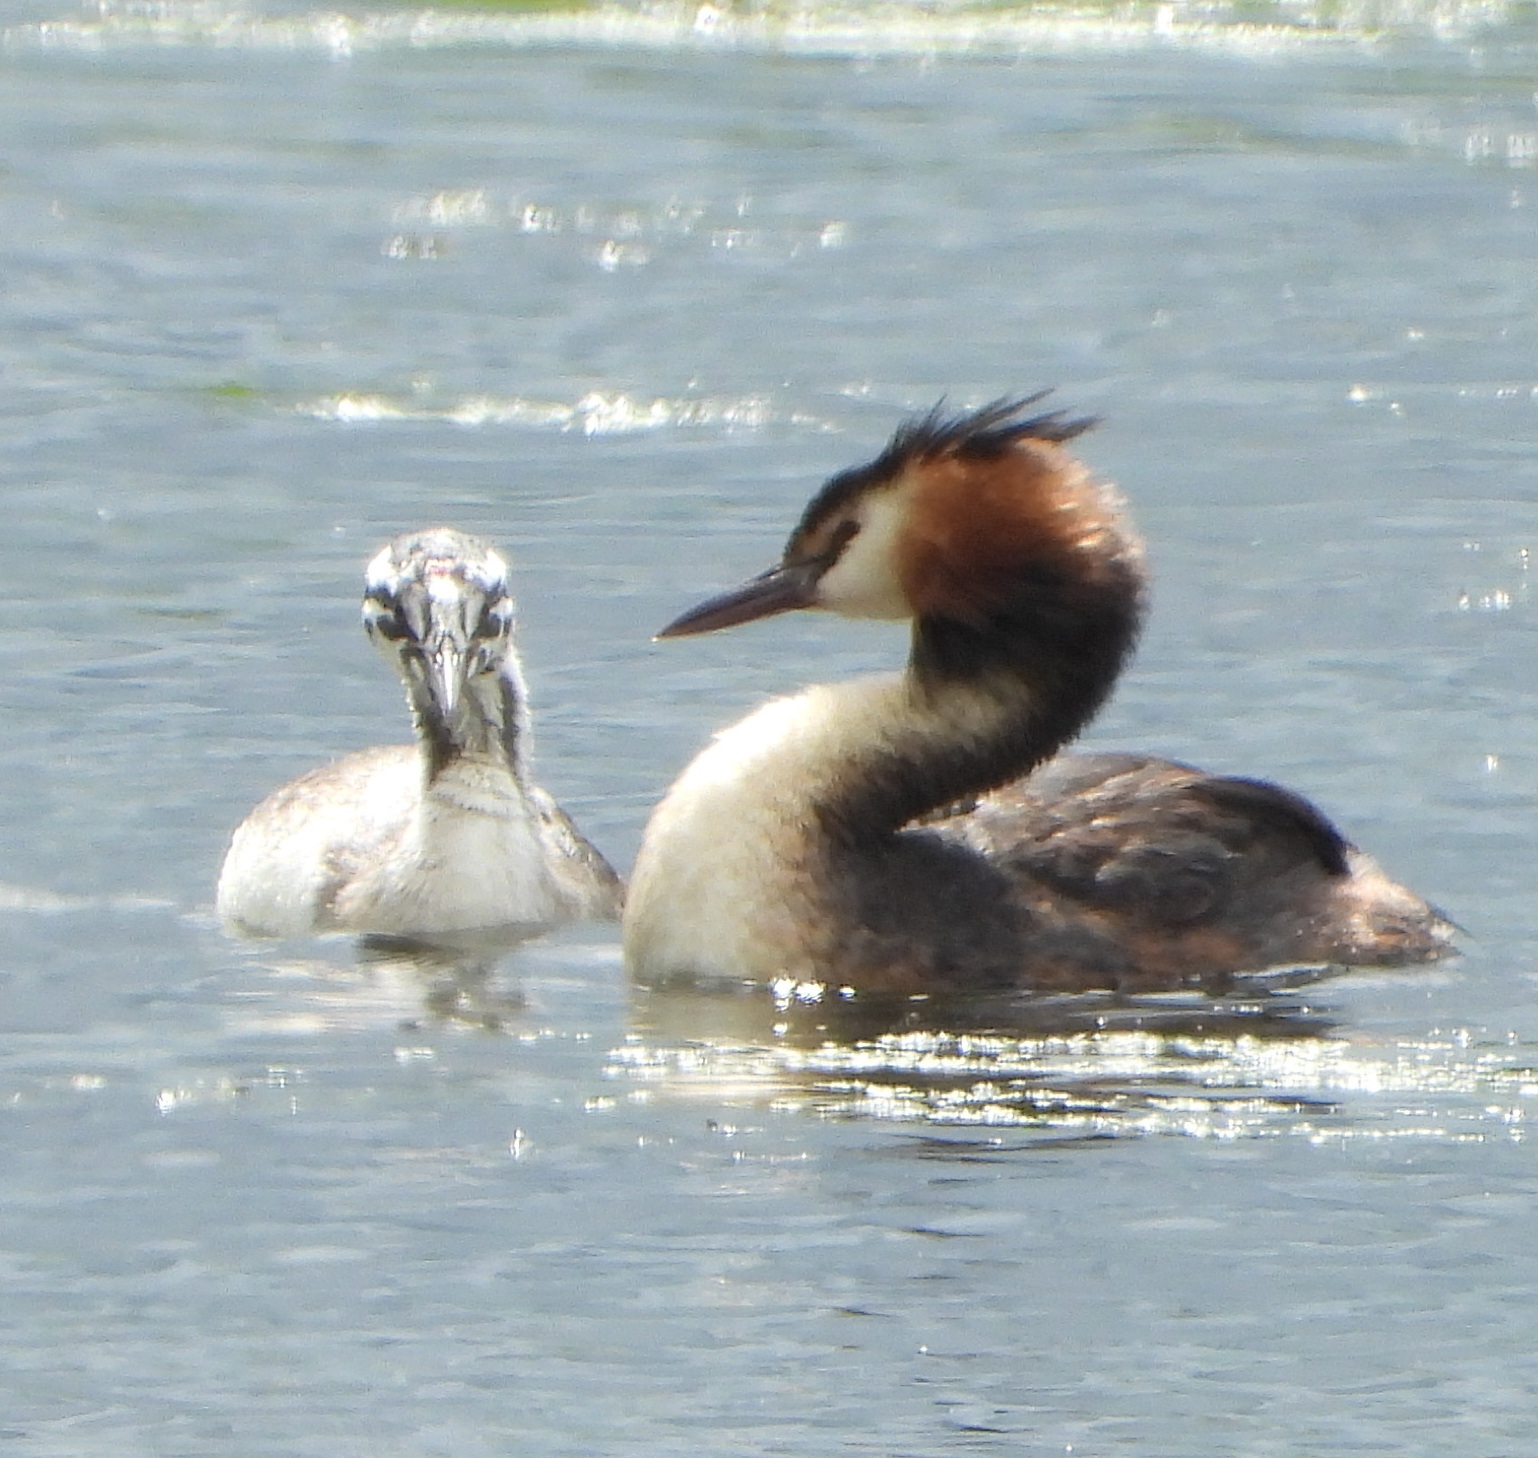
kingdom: Animalia
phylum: Chordata
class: Aves
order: Podicipediformes
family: Podicipedidae
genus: Podiceps
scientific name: Podiceps cristatus
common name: Great crested grebe
